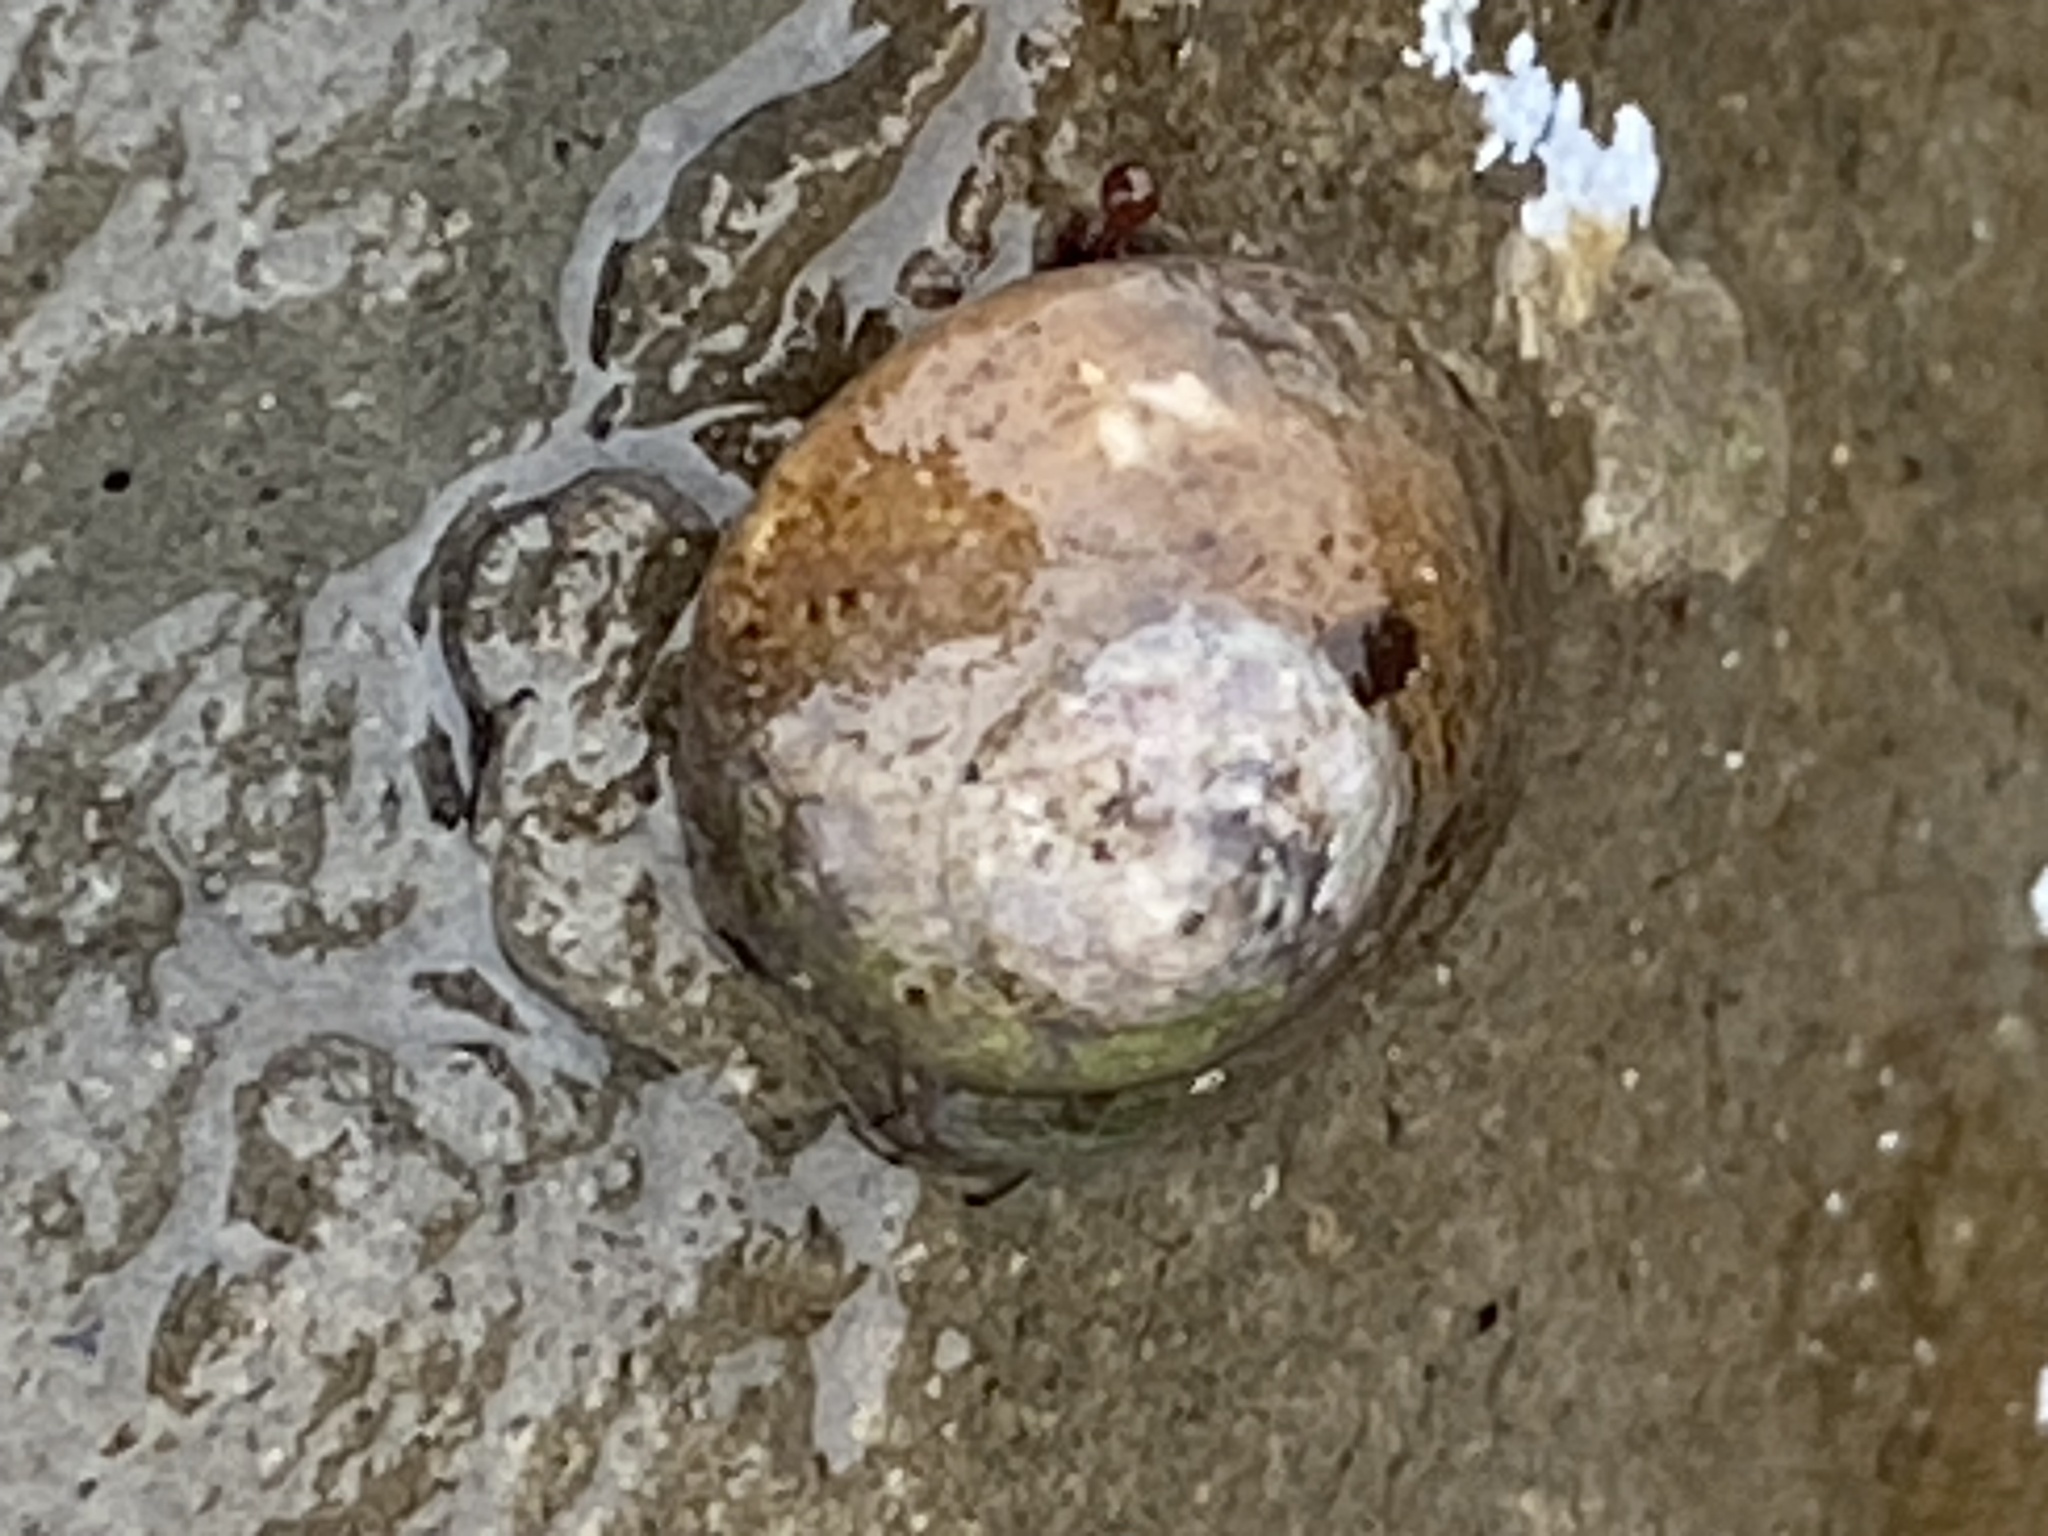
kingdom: Animalia
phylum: Mollusca
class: Gastropoda
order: Trochida
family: Tegulidae
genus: Tegula
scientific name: Tegula brunnea
